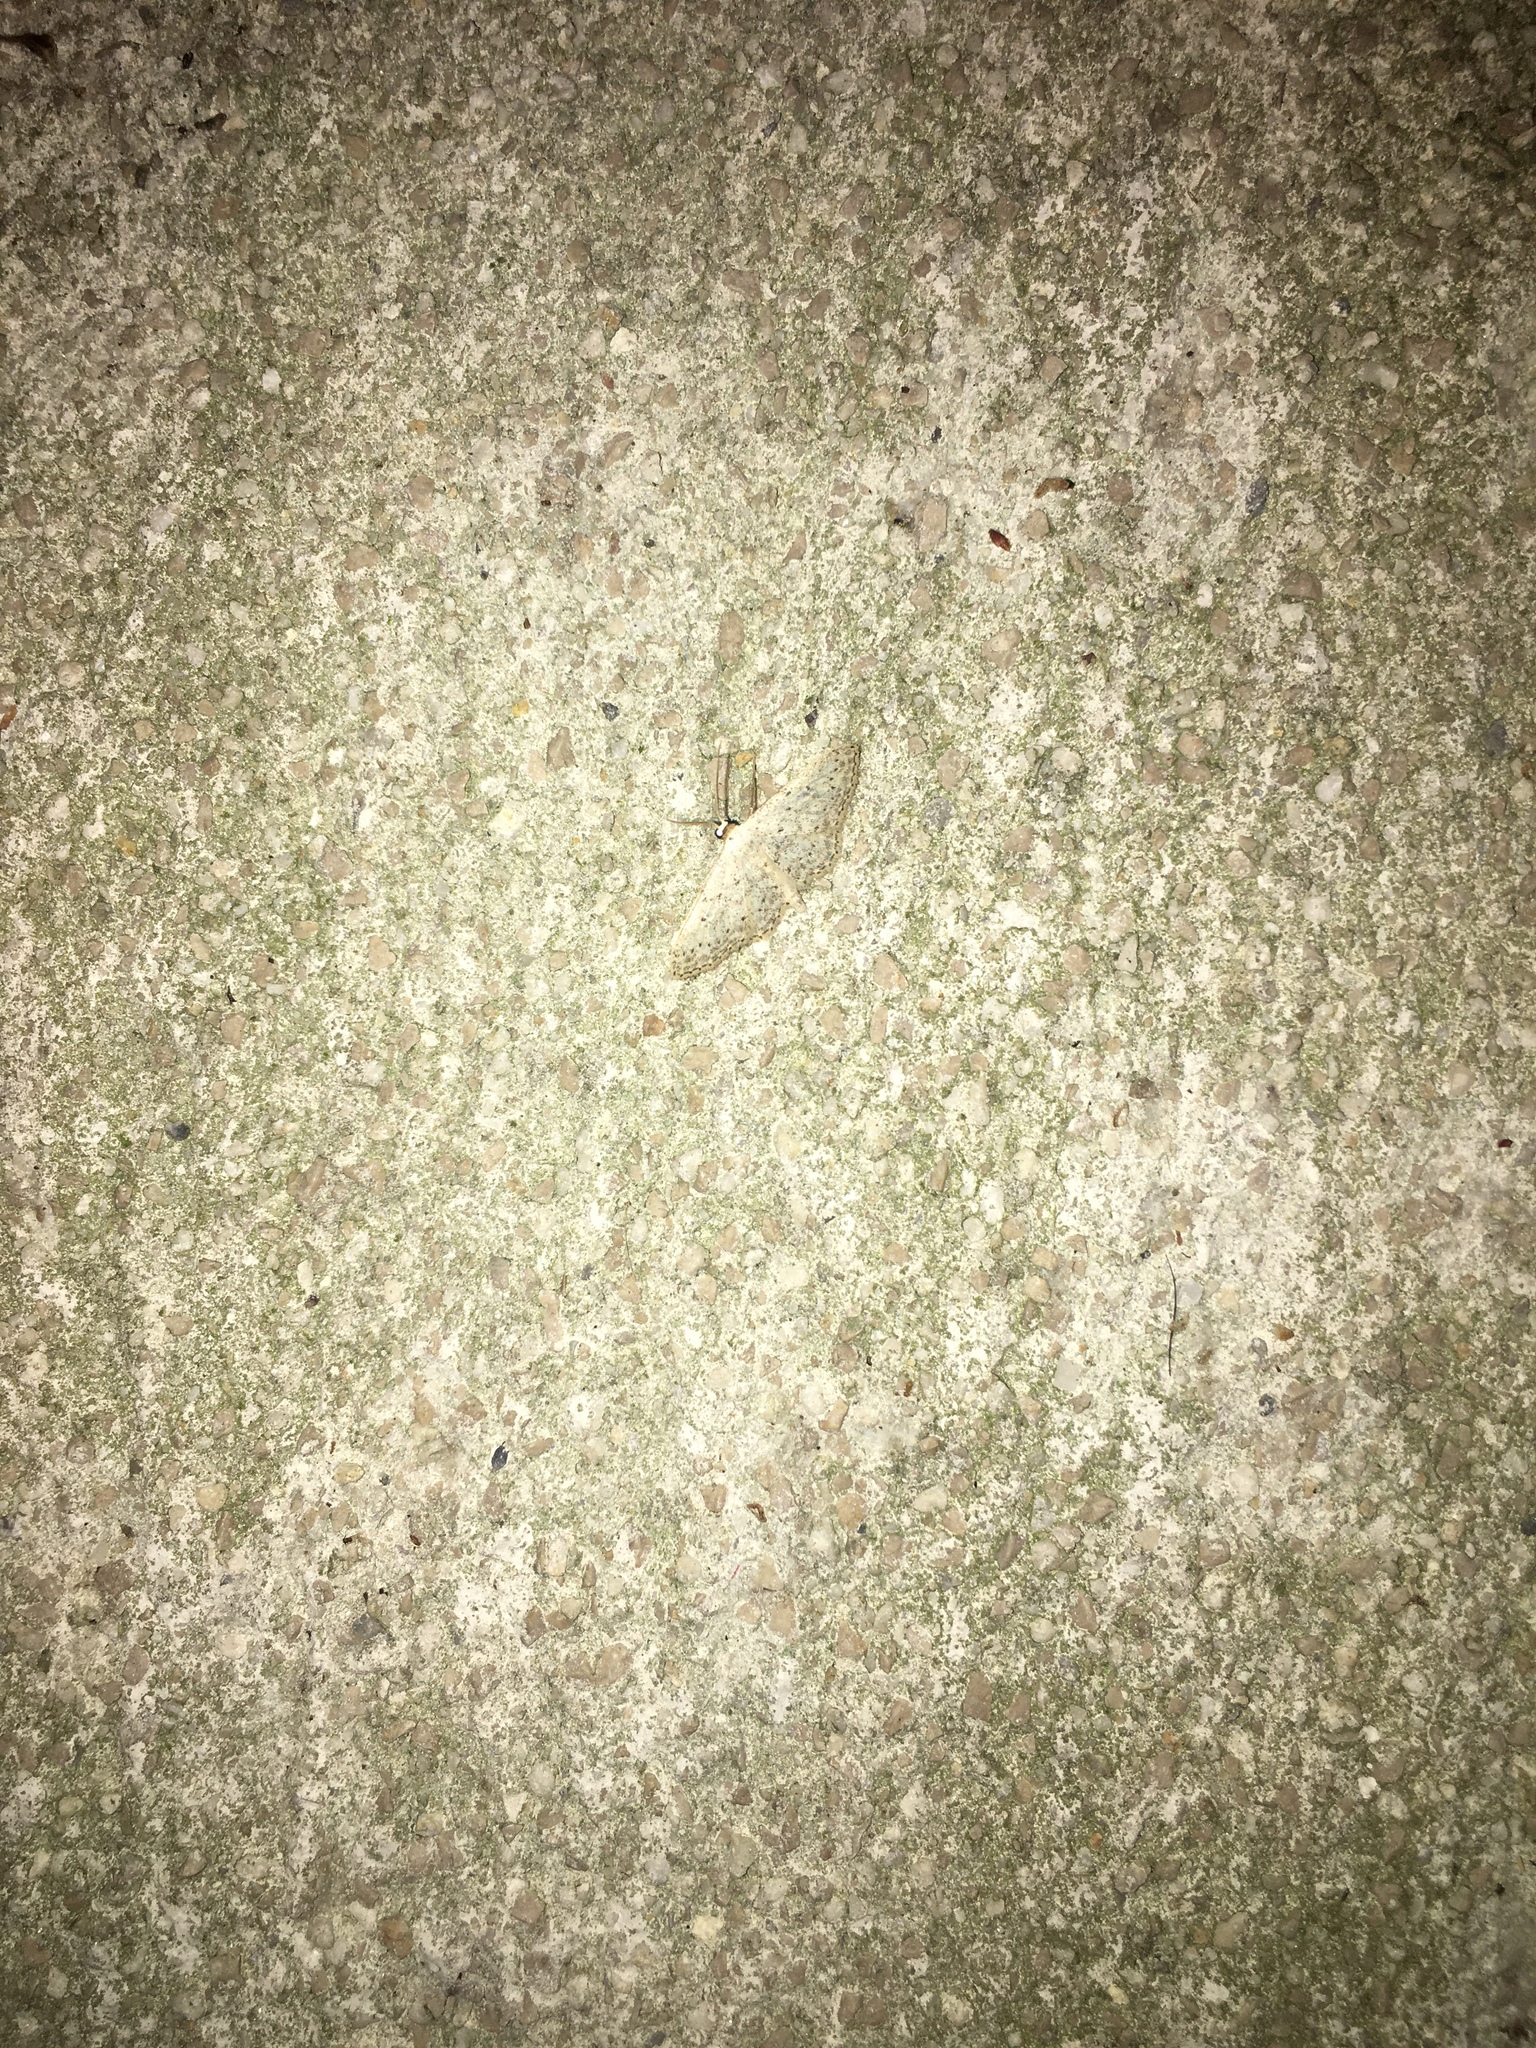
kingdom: Animalia
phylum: Arthropoda
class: Insecta
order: Lepidoptera
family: Geometridae
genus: Idaea
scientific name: Idaea seriata
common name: Small dusty wave
